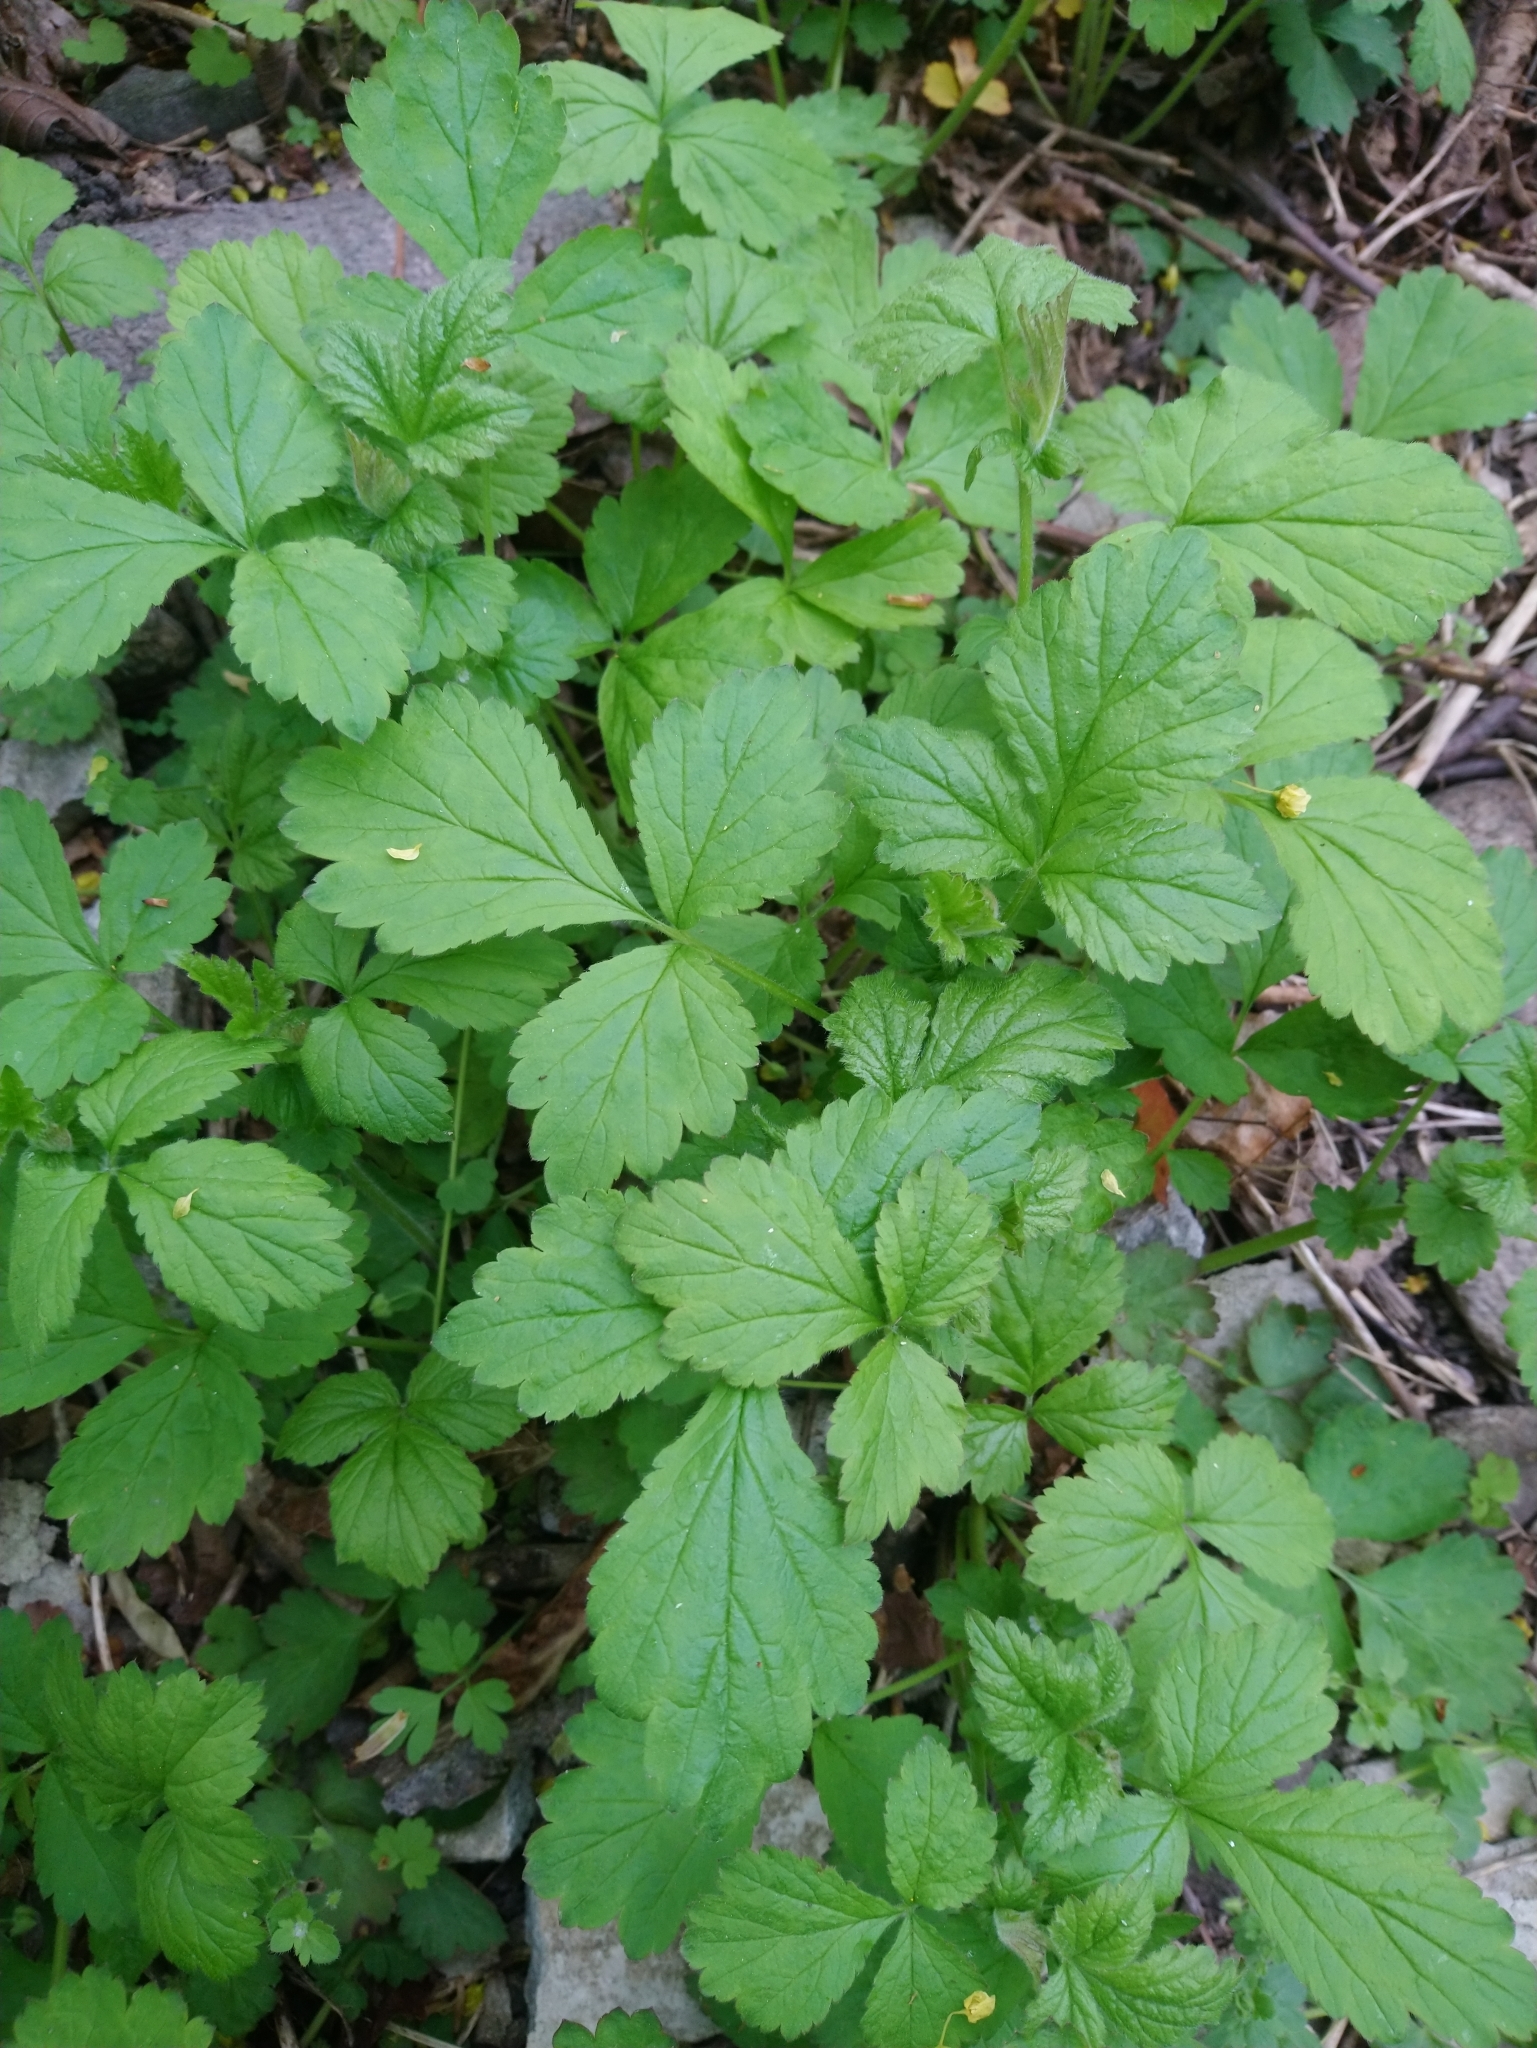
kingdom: Plantae
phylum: Tracheophyta
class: Magnoliopsida
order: Rosales
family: Rosaceae
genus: Geum
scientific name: Geum urbanum
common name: Wood avens
